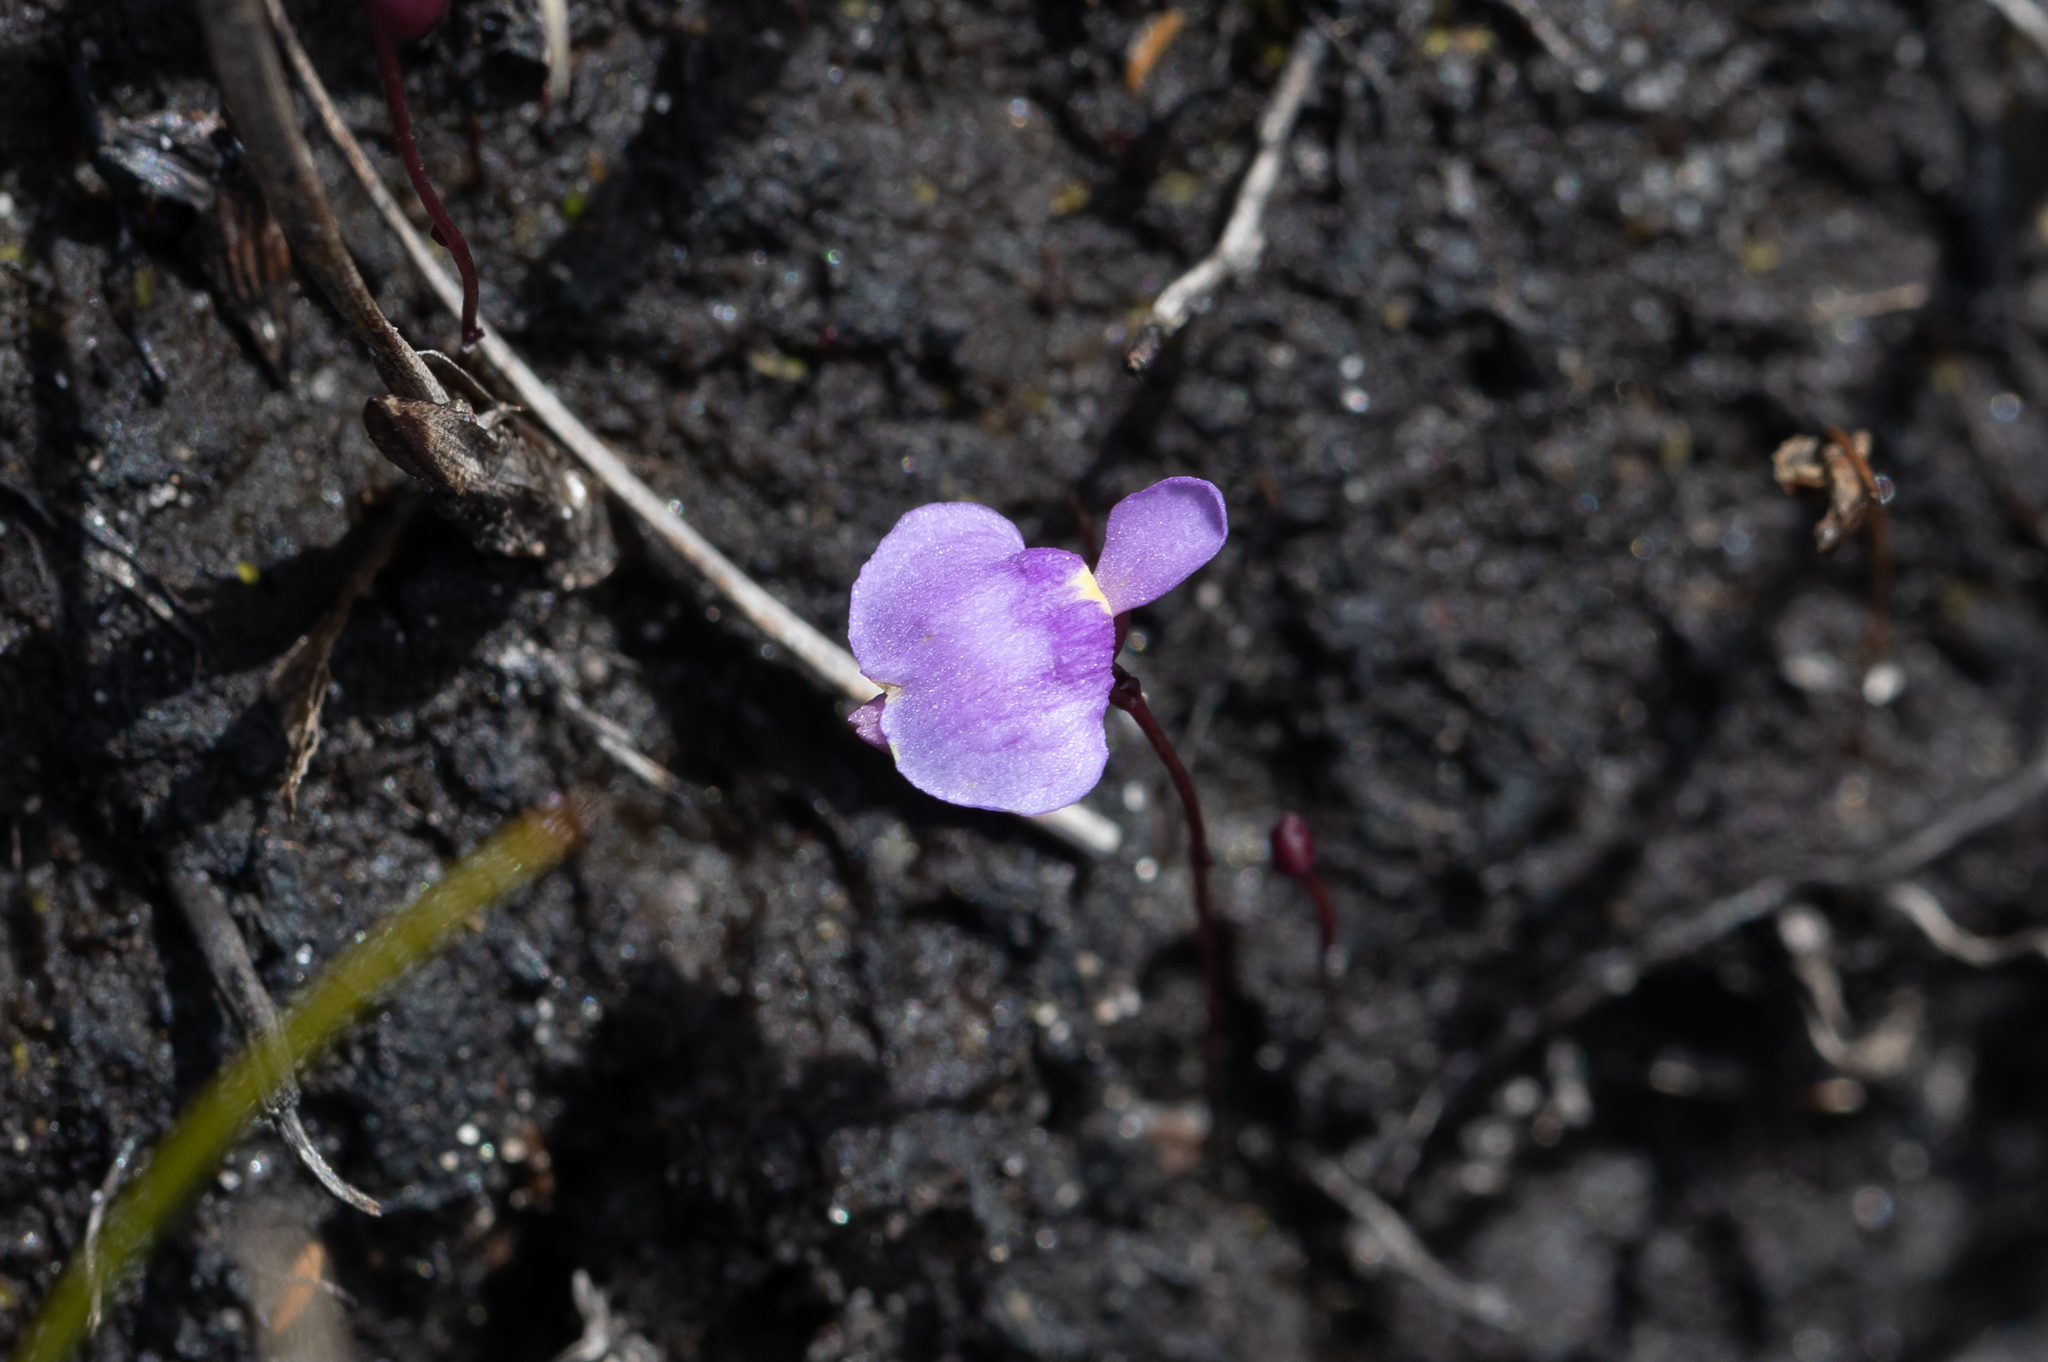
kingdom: Plantae
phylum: Tracheophyta
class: Magnoliopsida
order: Lamiales
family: Lentibulariaceae
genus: Utricularia
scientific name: Utricularia simplex
